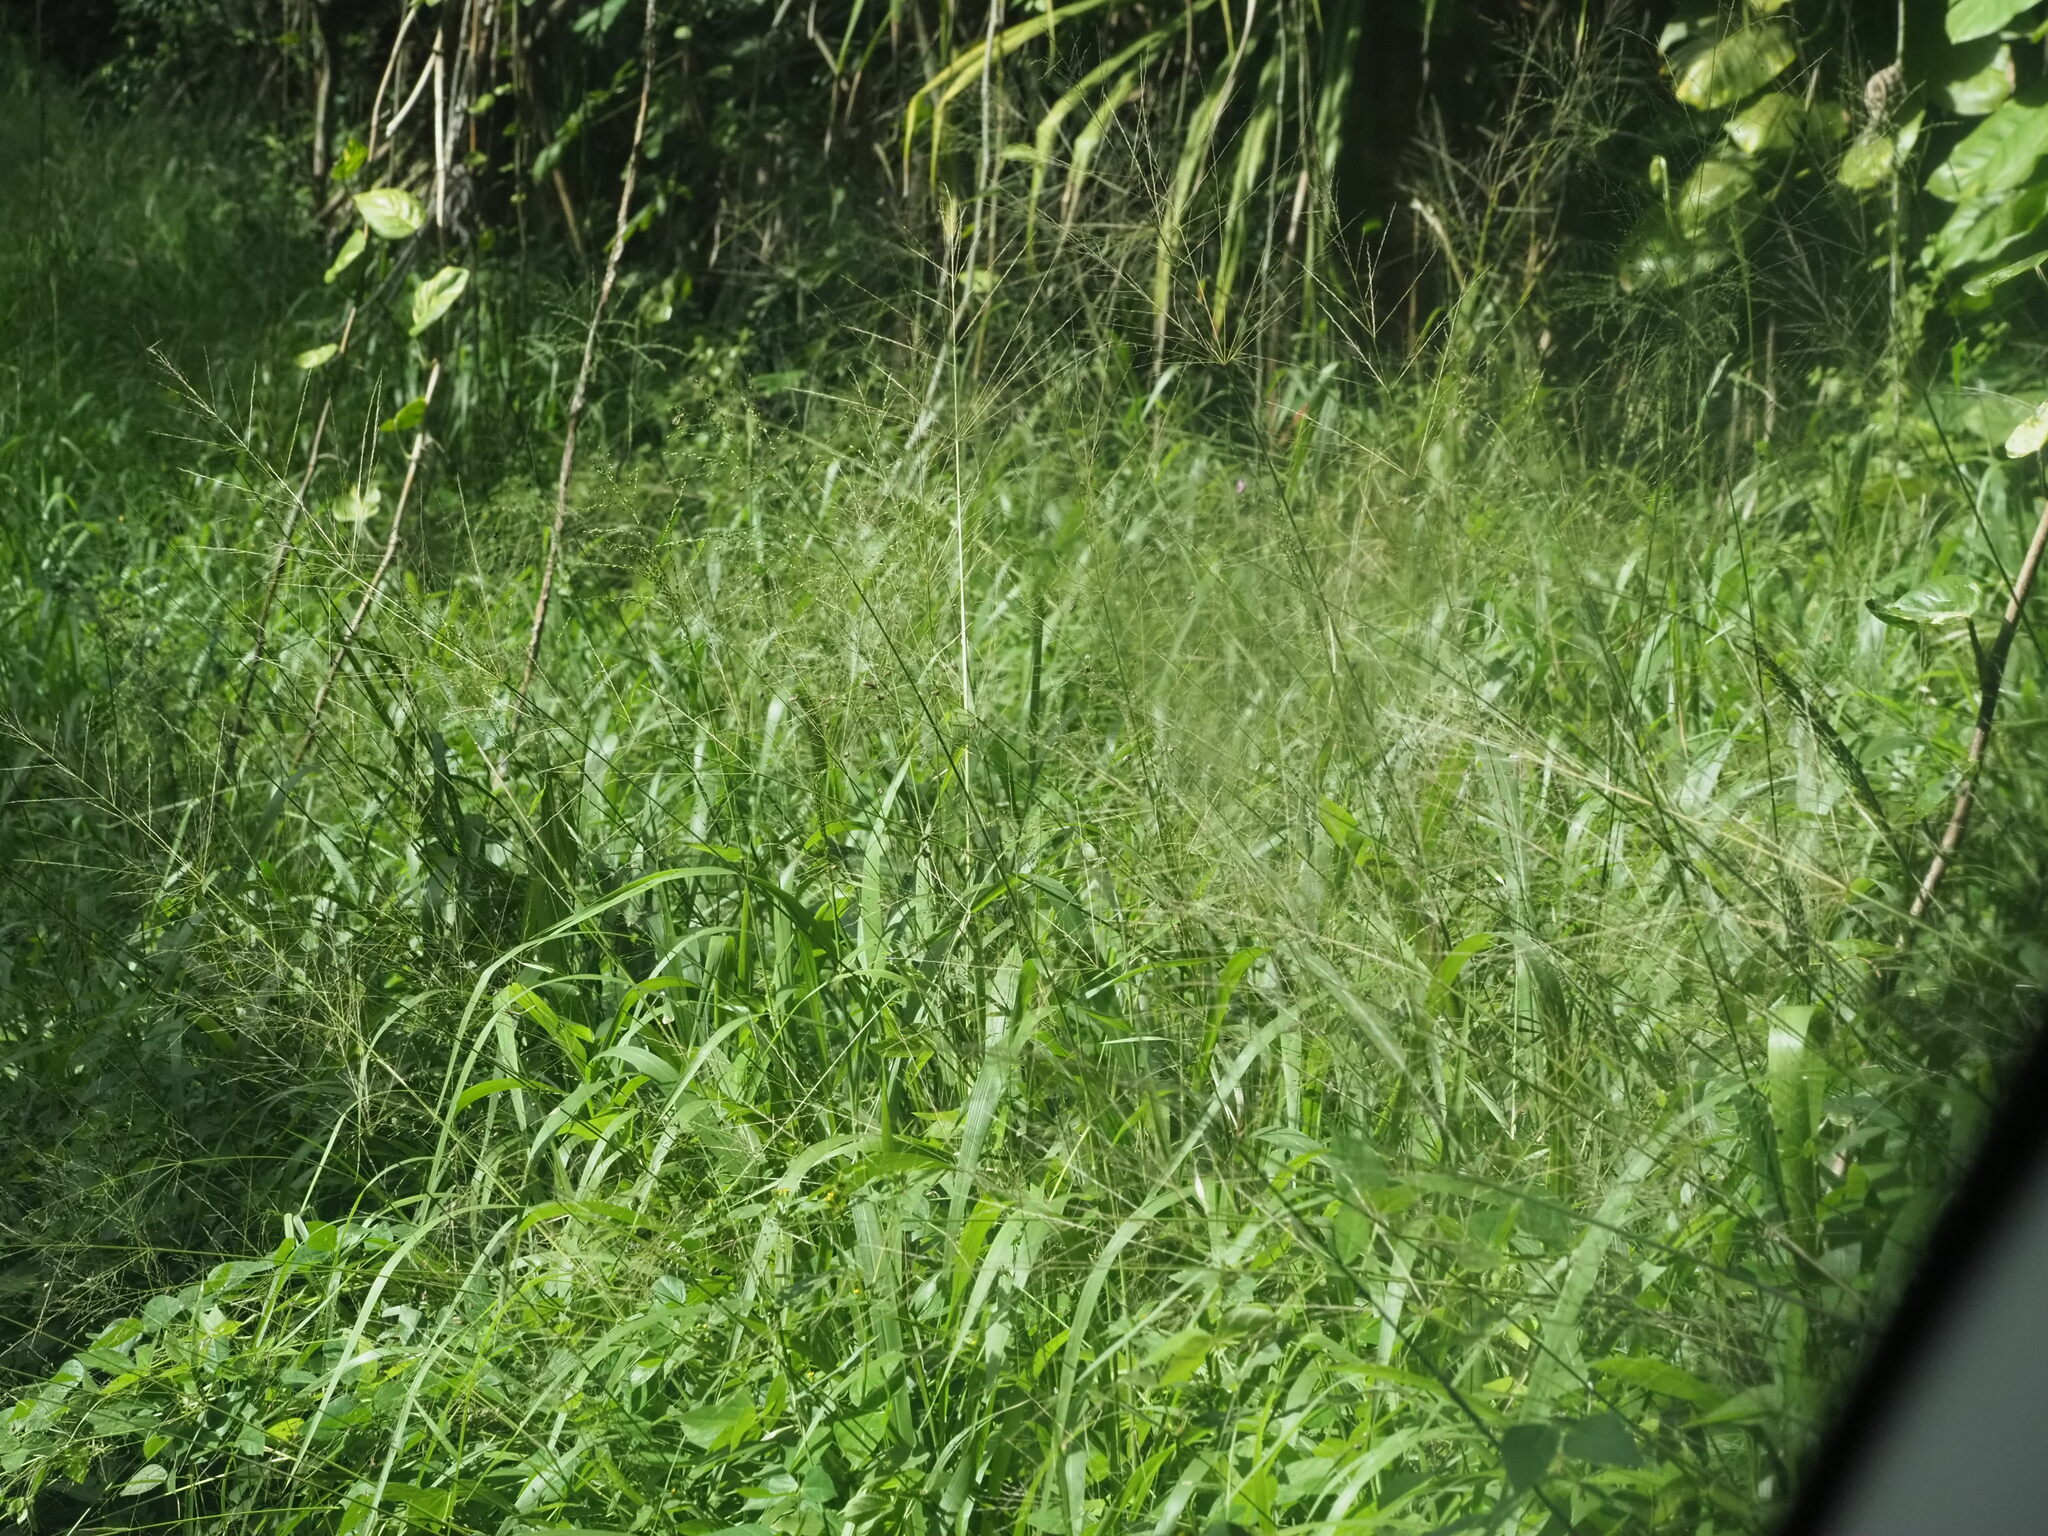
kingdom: Plantae
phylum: Tracheophyta
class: Liliopsida
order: Poales
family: Poaceae
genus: Megathyrsus
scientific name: Megathyrsus maximus
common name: Guineagrass
